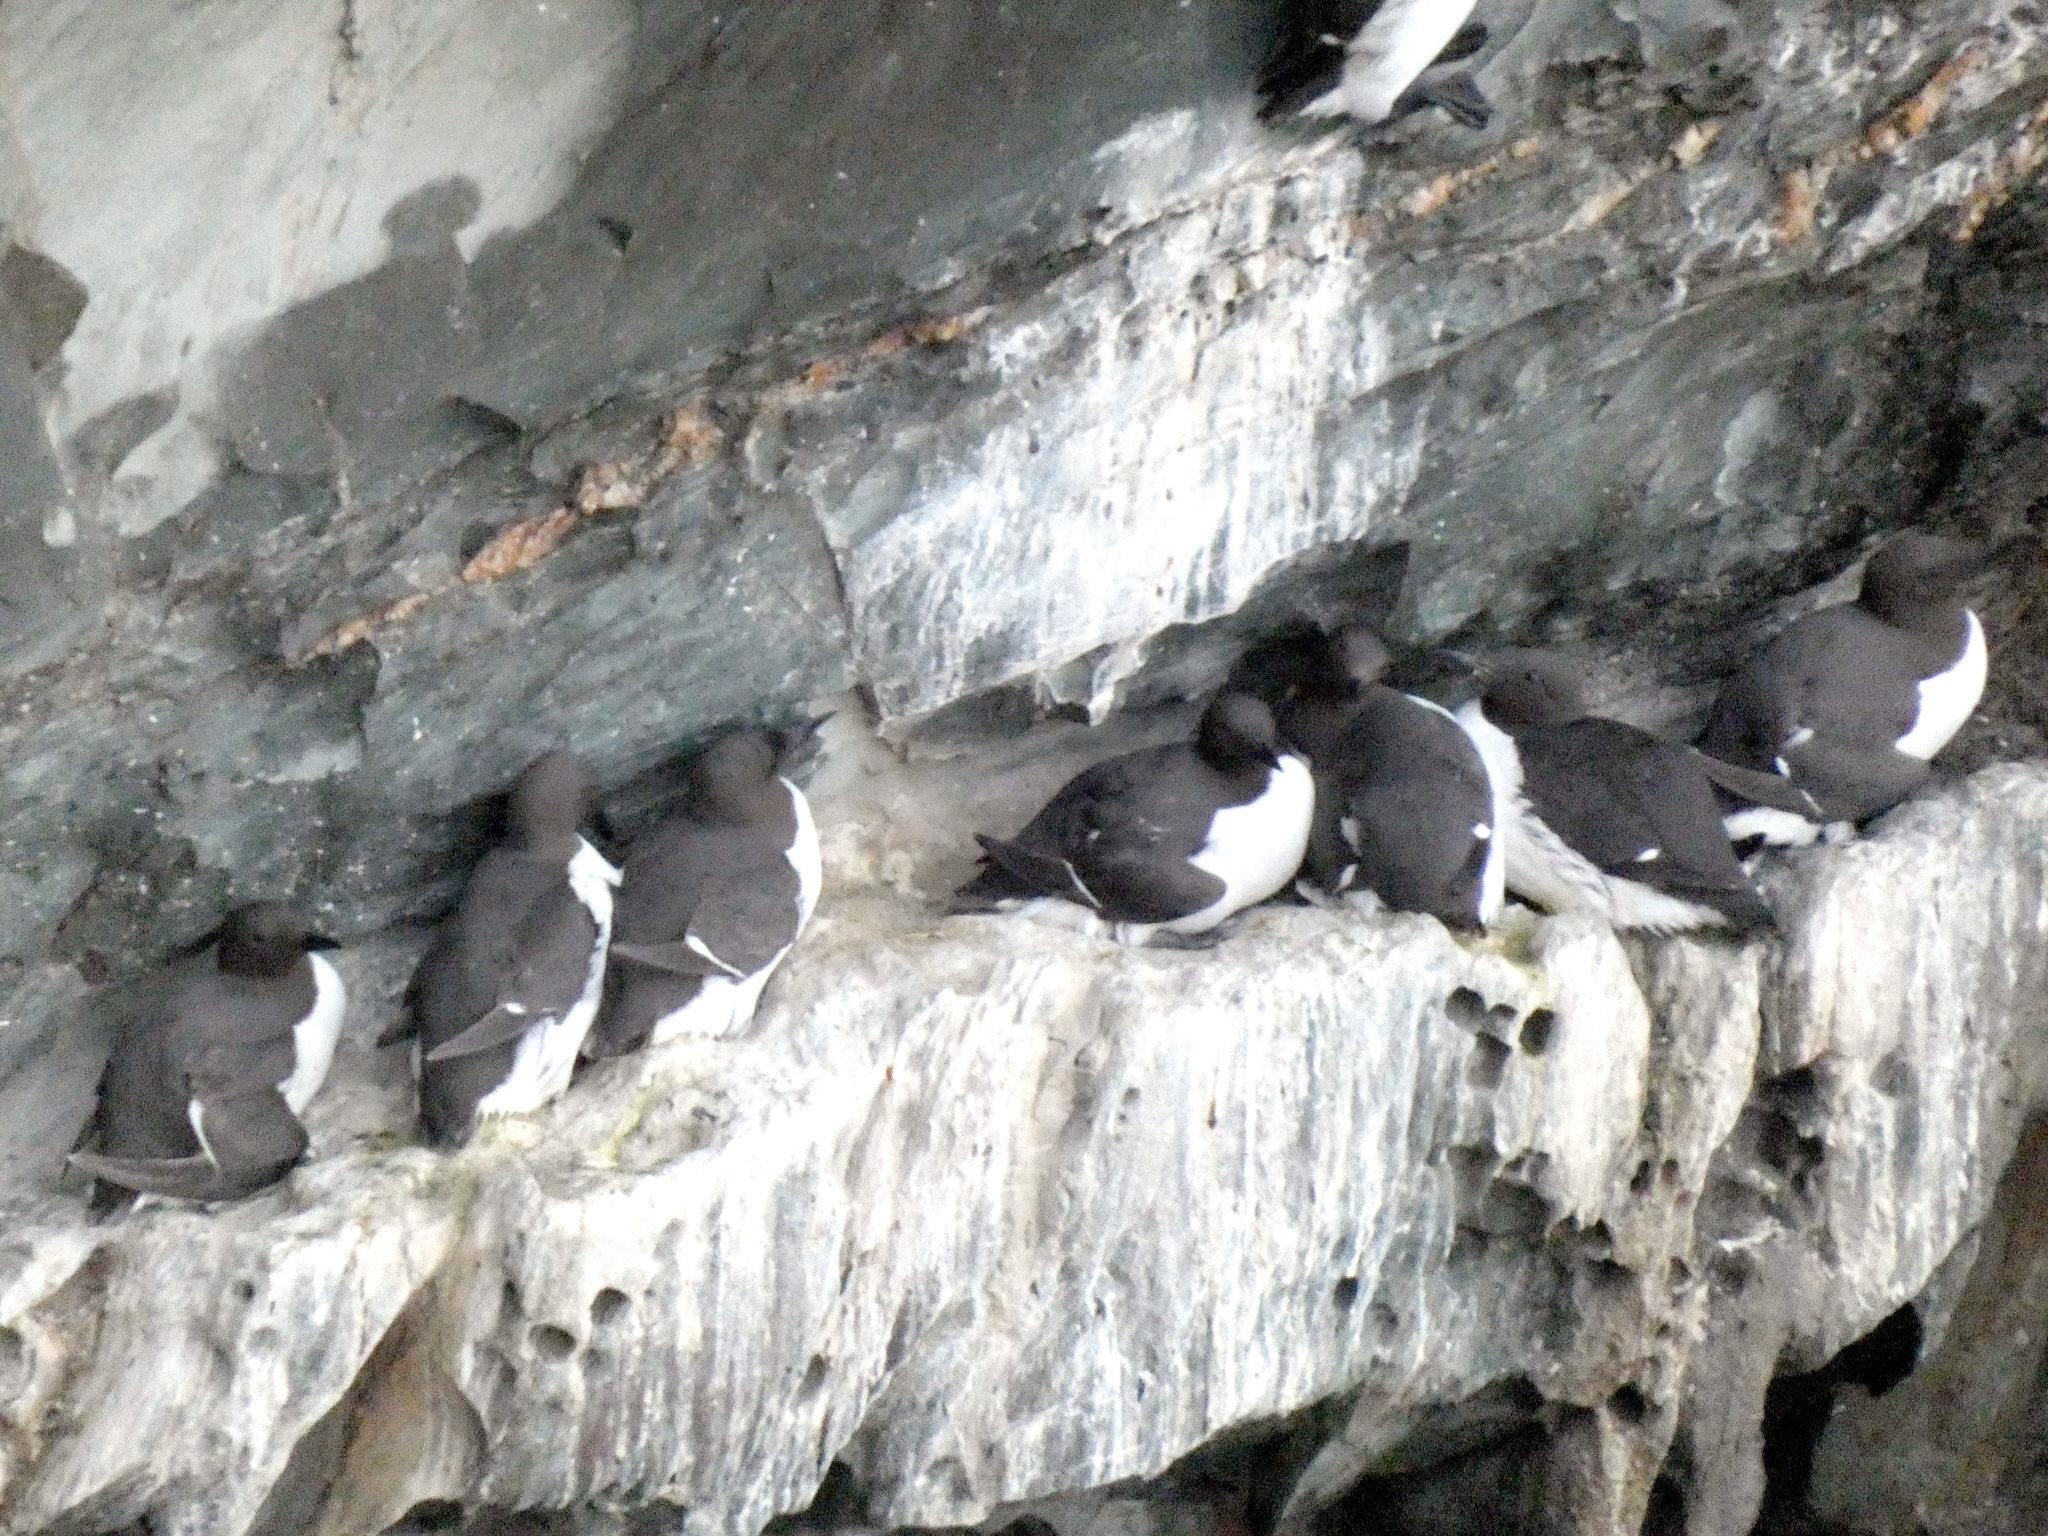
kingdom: Animalia
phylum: Chordata
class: Aves
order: Charadriiformes
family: Alcidae
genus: Uria
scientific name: Uria aalge
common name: Common murre
